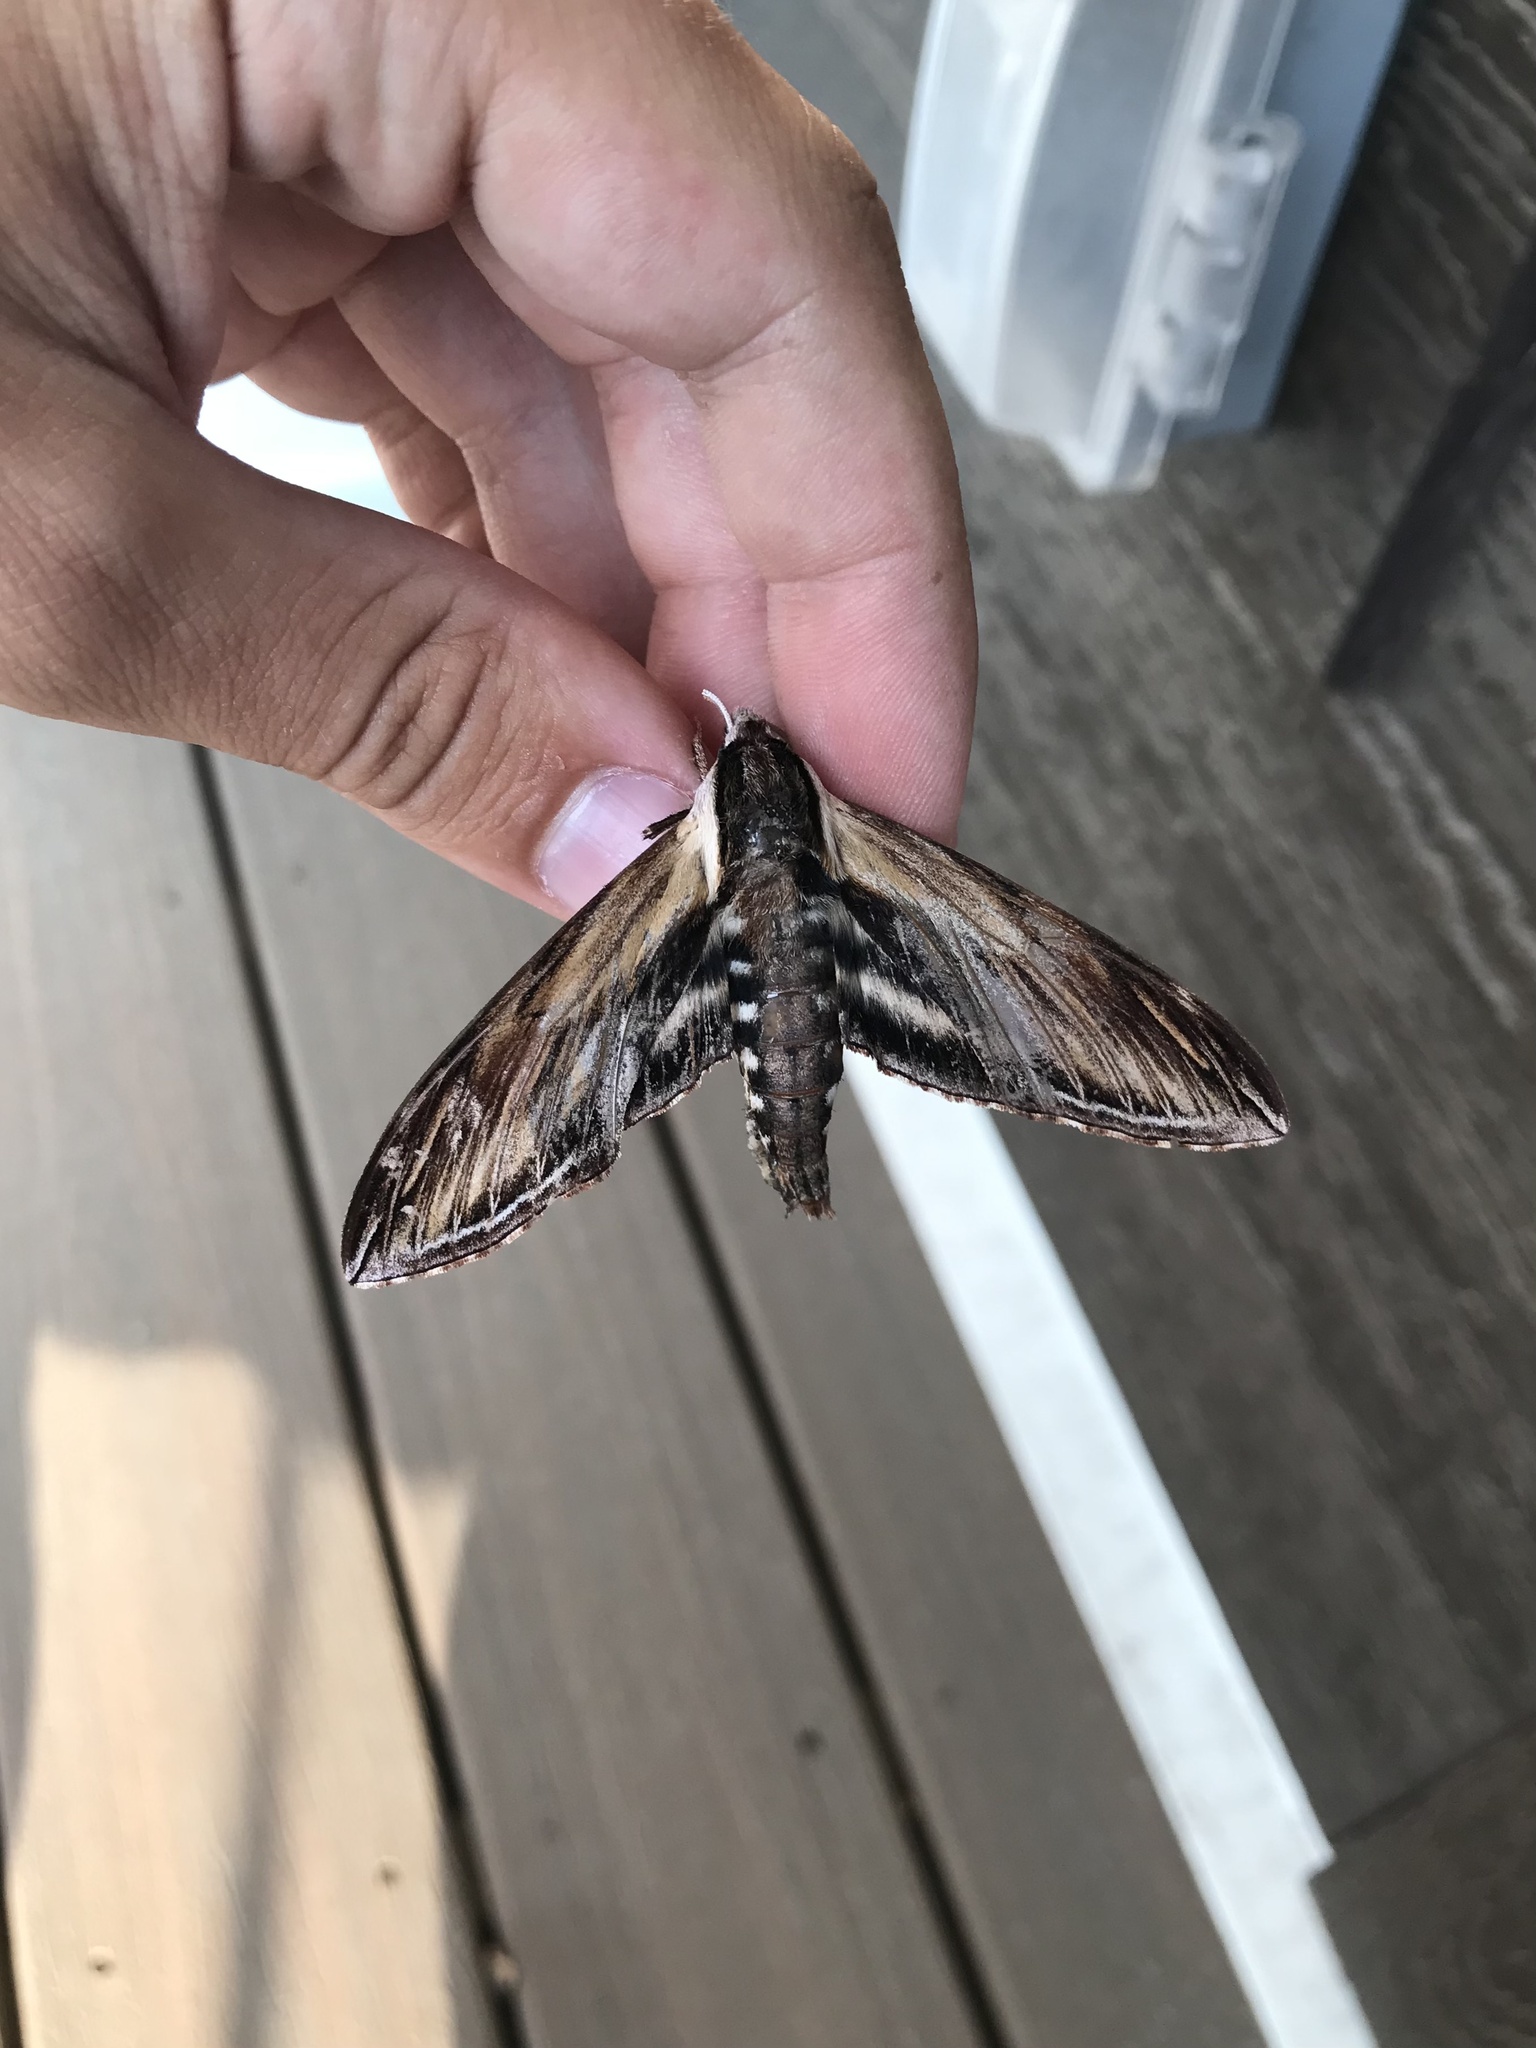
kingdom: Animalia
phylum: Arthropoda
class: Insecta
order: Lepidoptera
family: Sphingidae
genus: Sphinx
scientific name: Sphinx kalmiae
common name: Laurel sphinx
